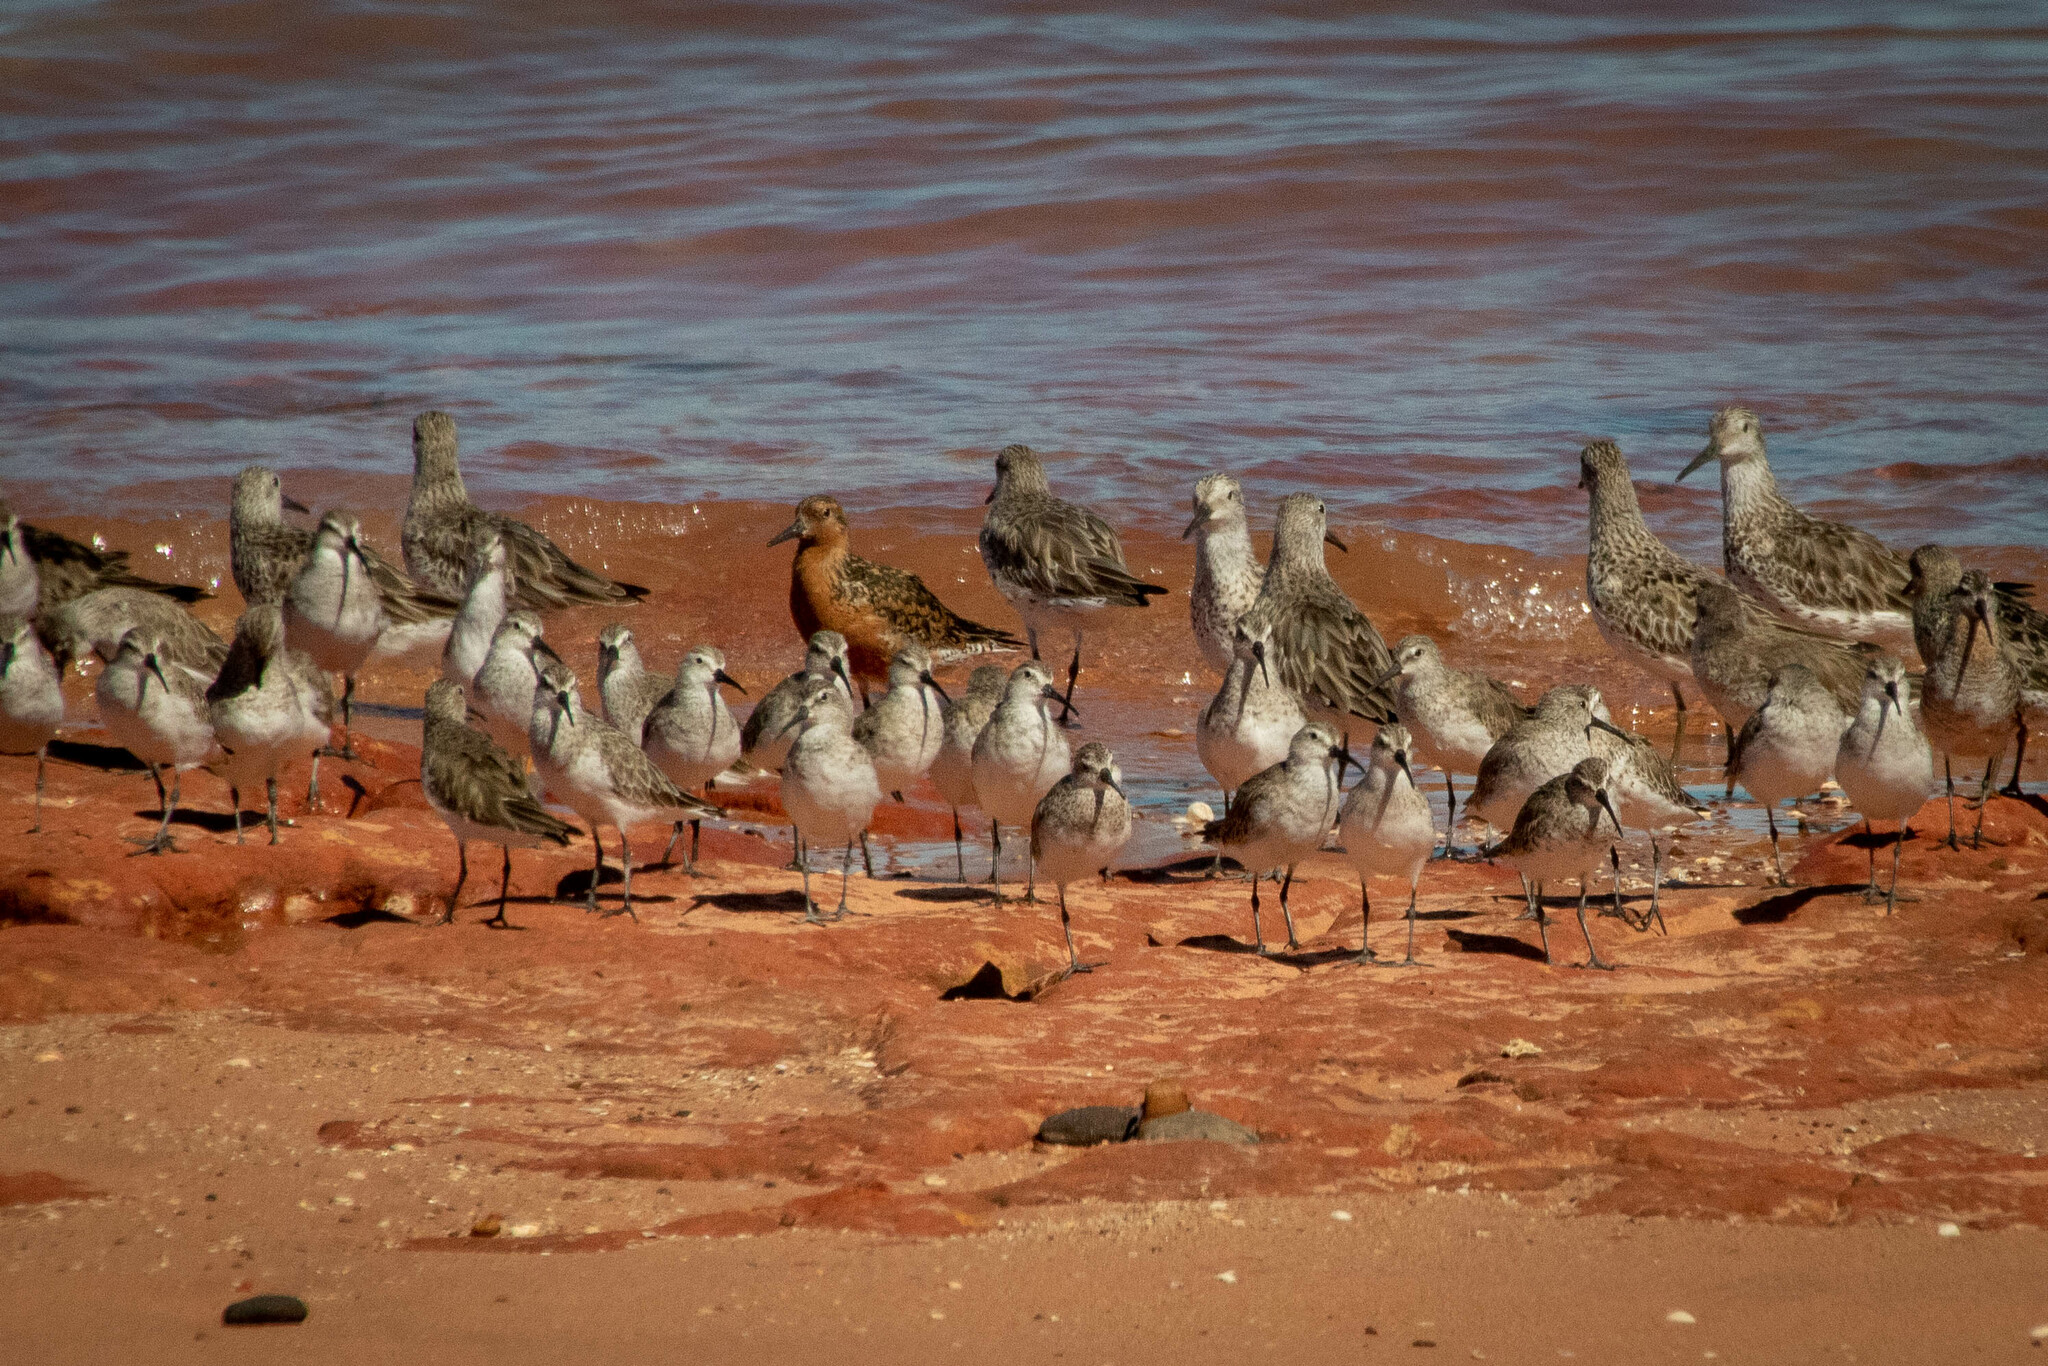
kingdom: Animalia
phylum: Chordata
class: Aves
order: Charadriiformes
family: Scolopacidae
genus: Calidris
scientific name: Calidris ferruginea
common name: Curlew sandpiper
